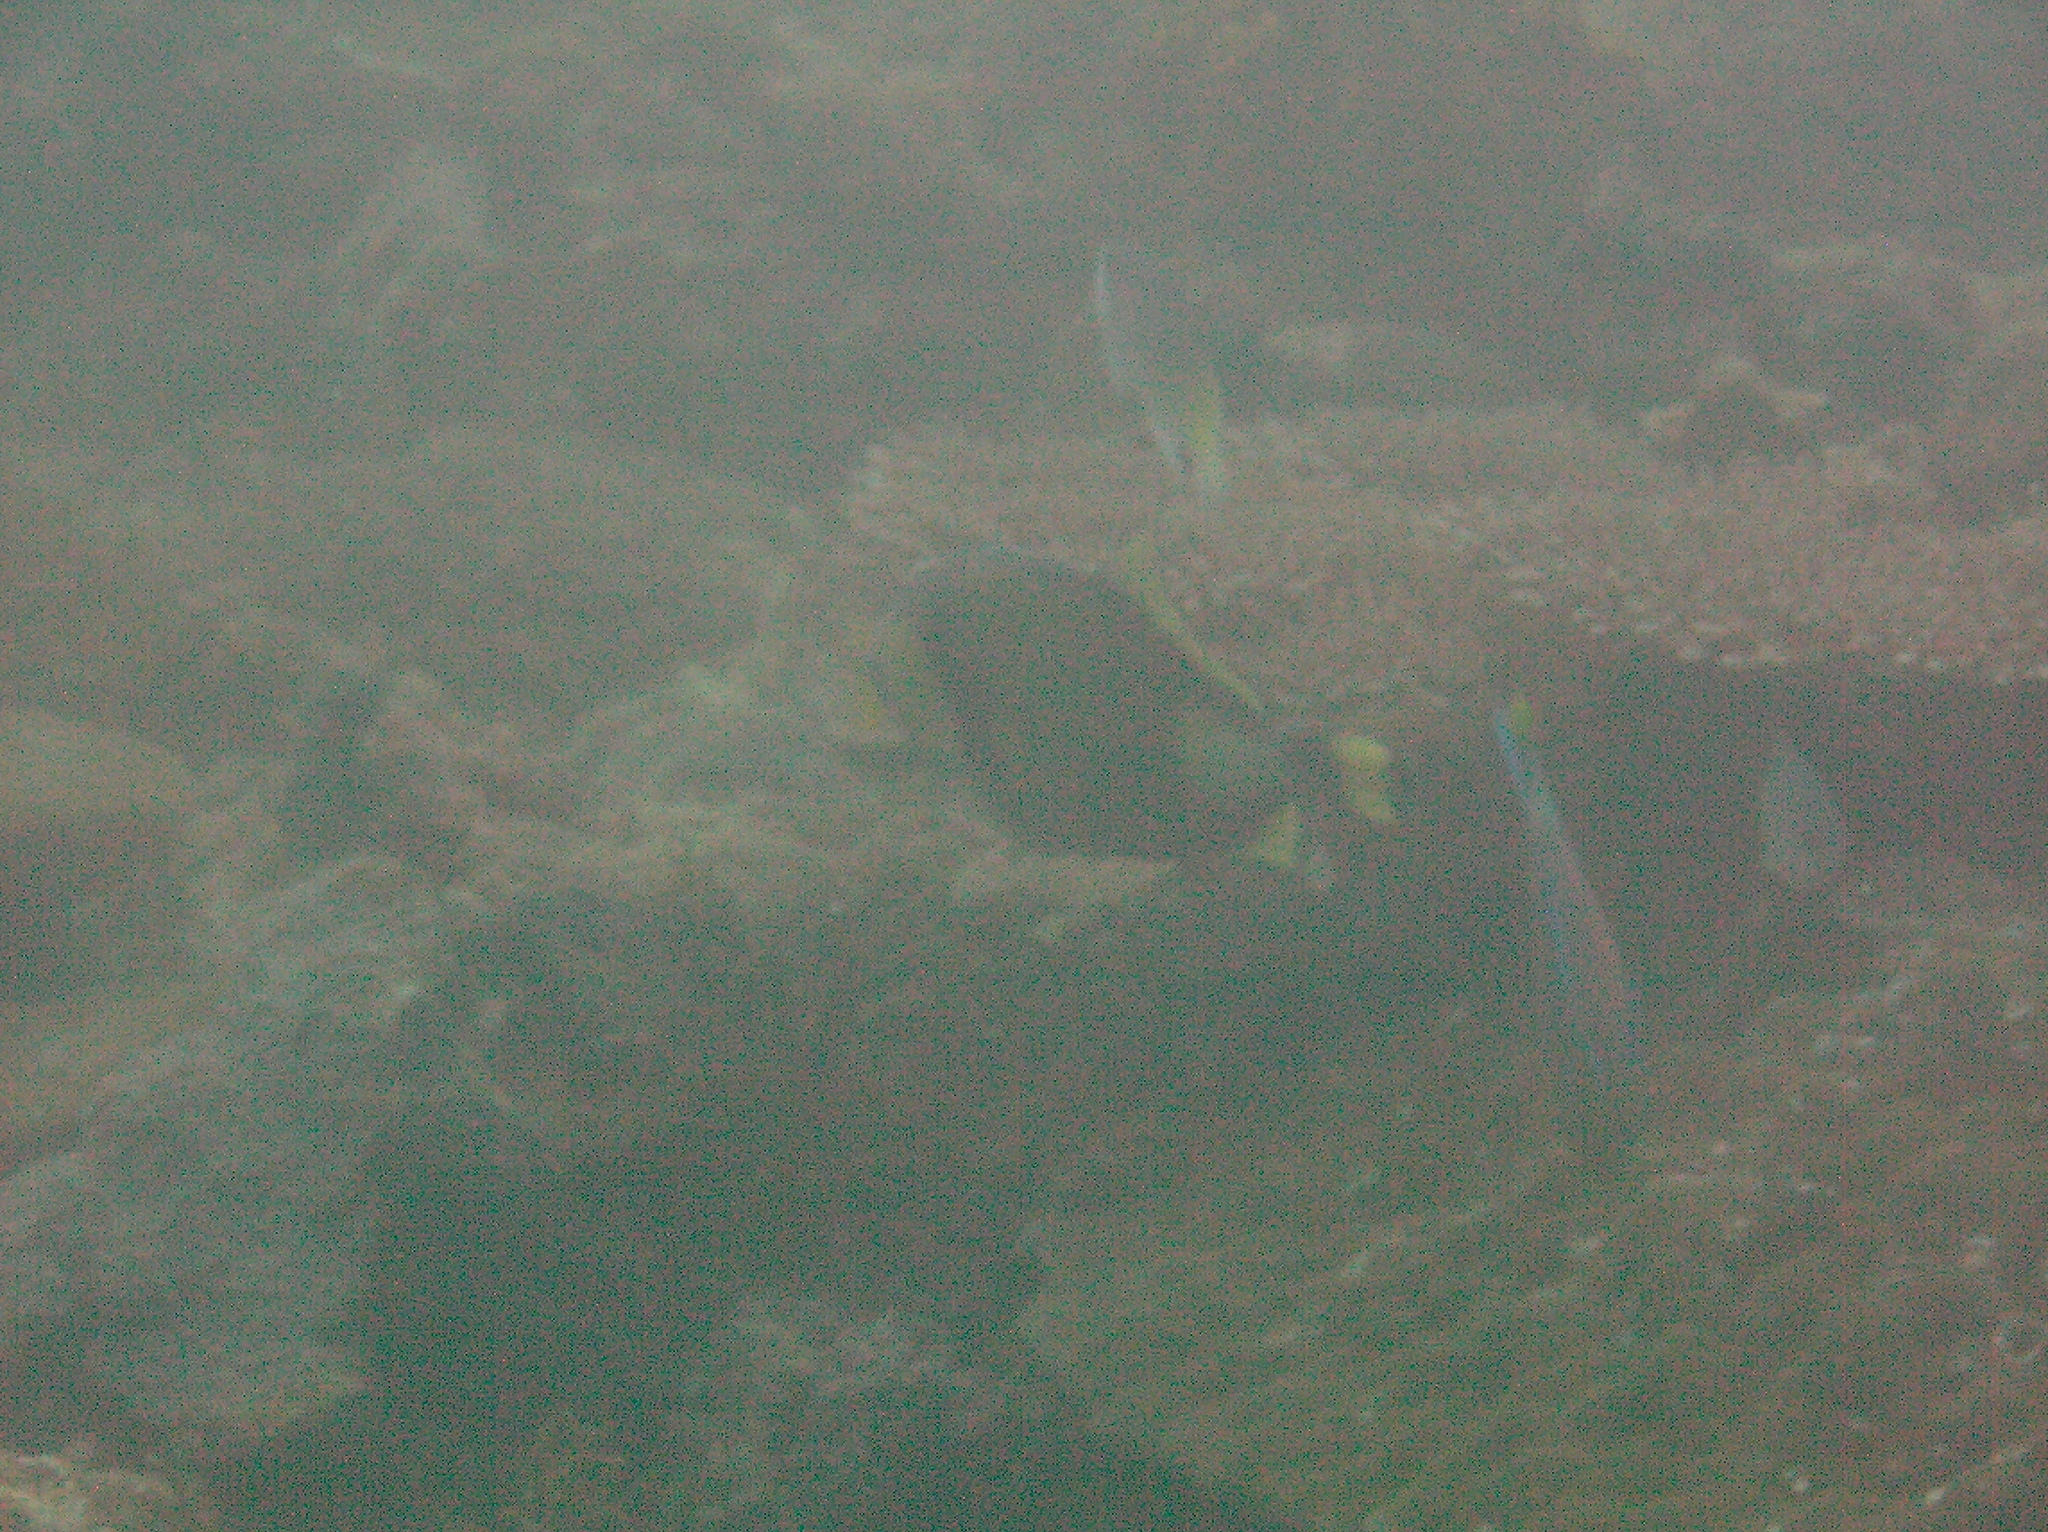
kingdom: Animalia
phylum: Chordata
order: Tetraodontiformes
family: Balistidae
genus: Balistoides
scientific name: Balistoides viridescens
